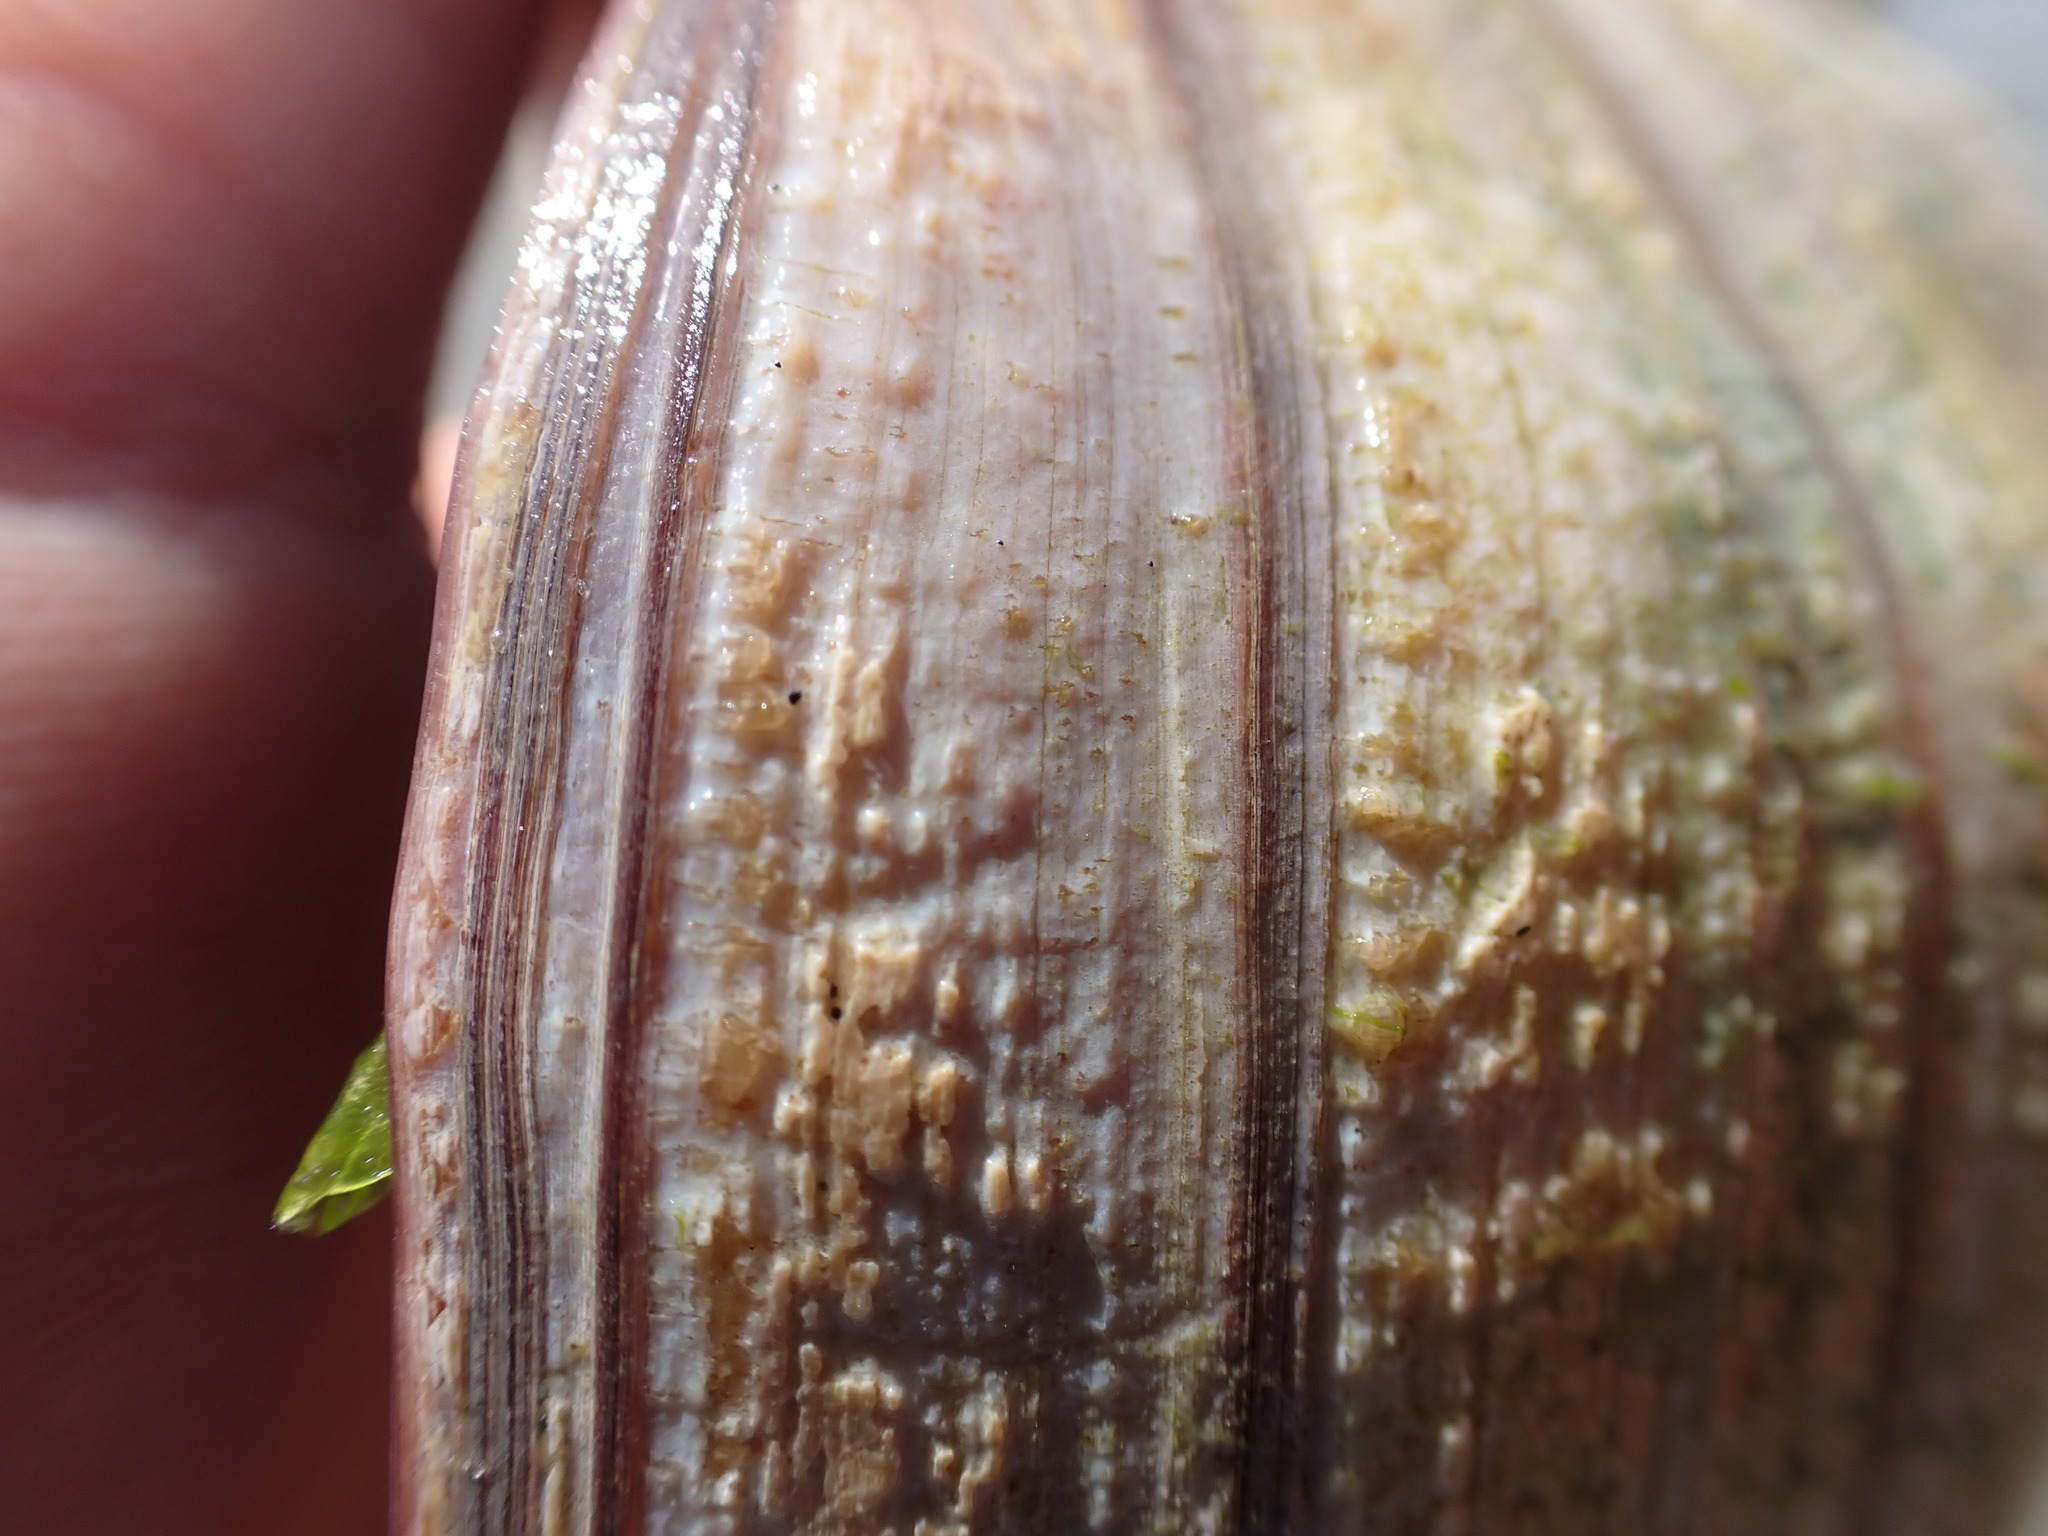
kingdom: Animalia
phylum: Mollusca
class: Gastropoda
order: Littorinimorpha
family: Naticidae
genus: Neverita
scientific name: Neverita lewisii
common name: Lewis' moonsnail
